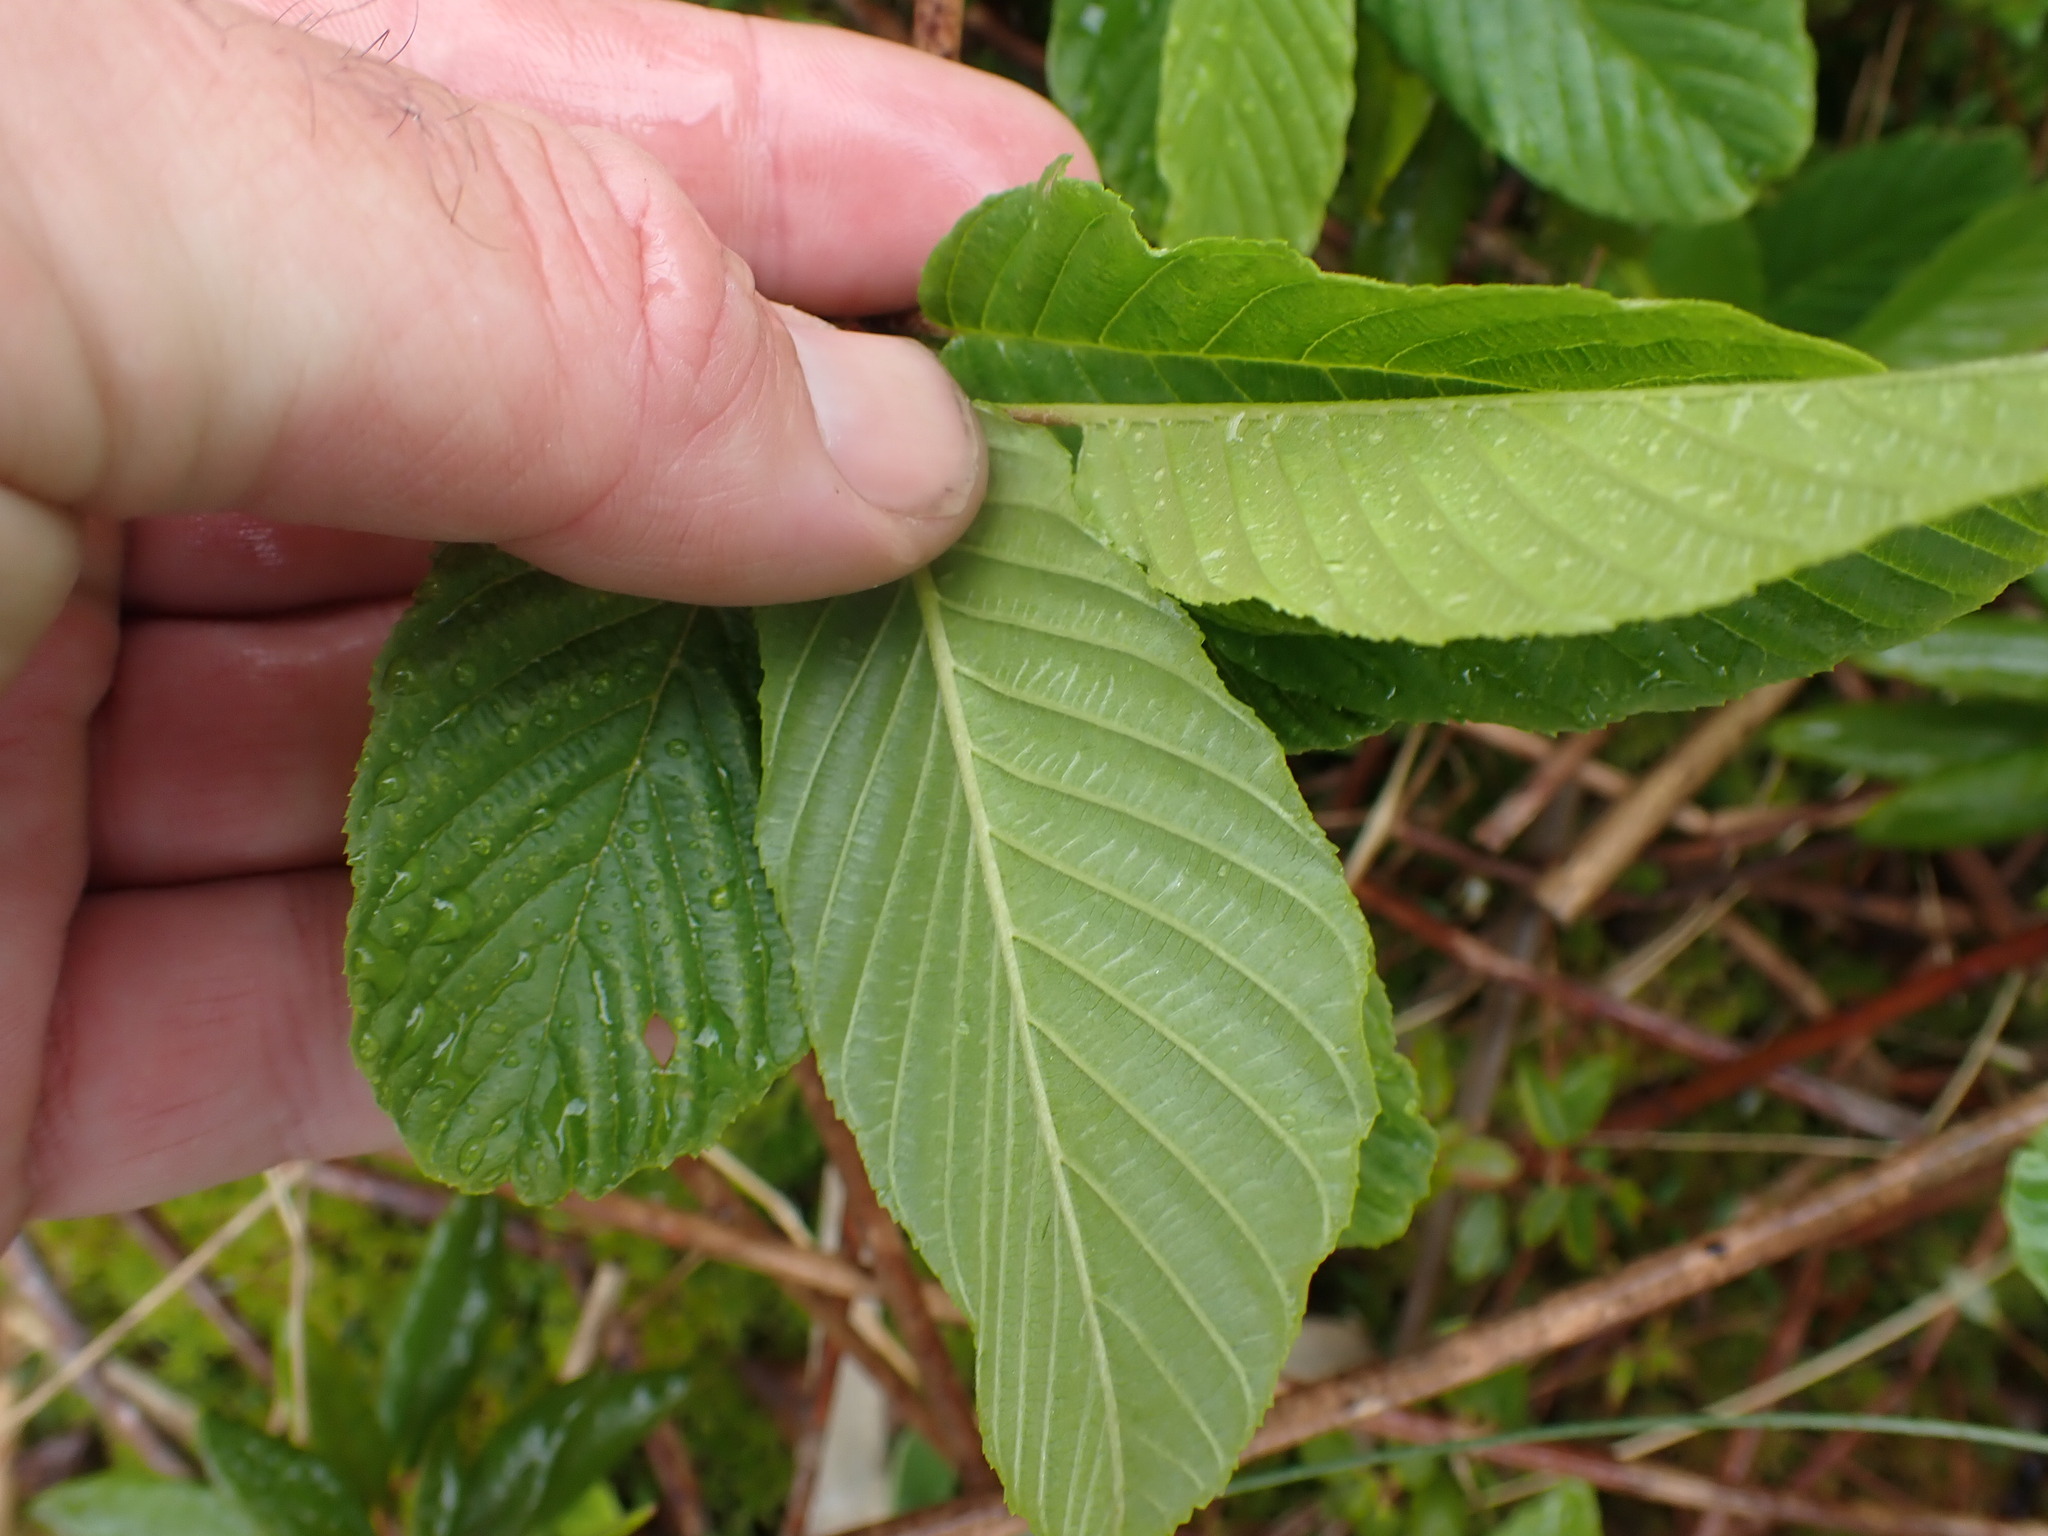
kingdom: Plantae
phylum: Tracheophyta
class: Magnoliopsida
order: Rosales
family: Rhamnaceae
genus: Frangula
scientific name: Frangula purshiana
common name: Cascara buckthorn
